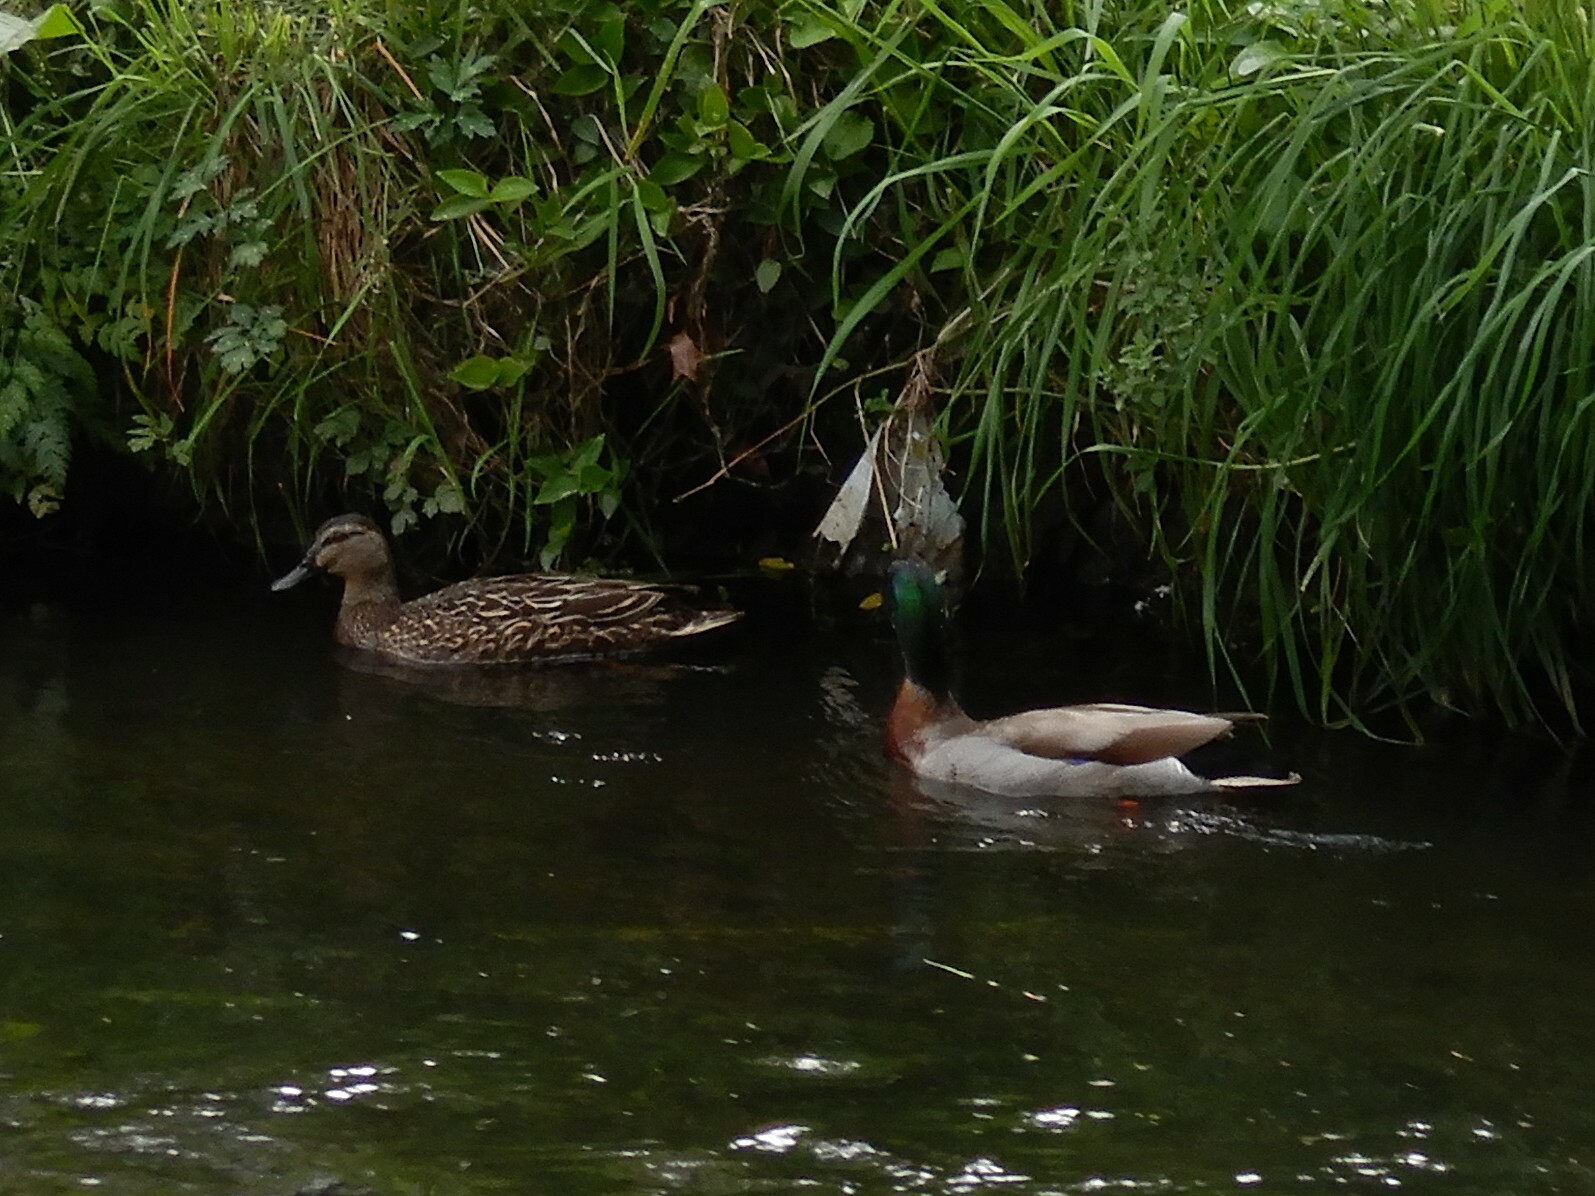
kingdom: Animalia
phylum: Chordata
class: Aves
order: Anseriformes
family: Anatidae
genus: Anas
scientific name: Anas platyrhynchos
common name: Mallard
